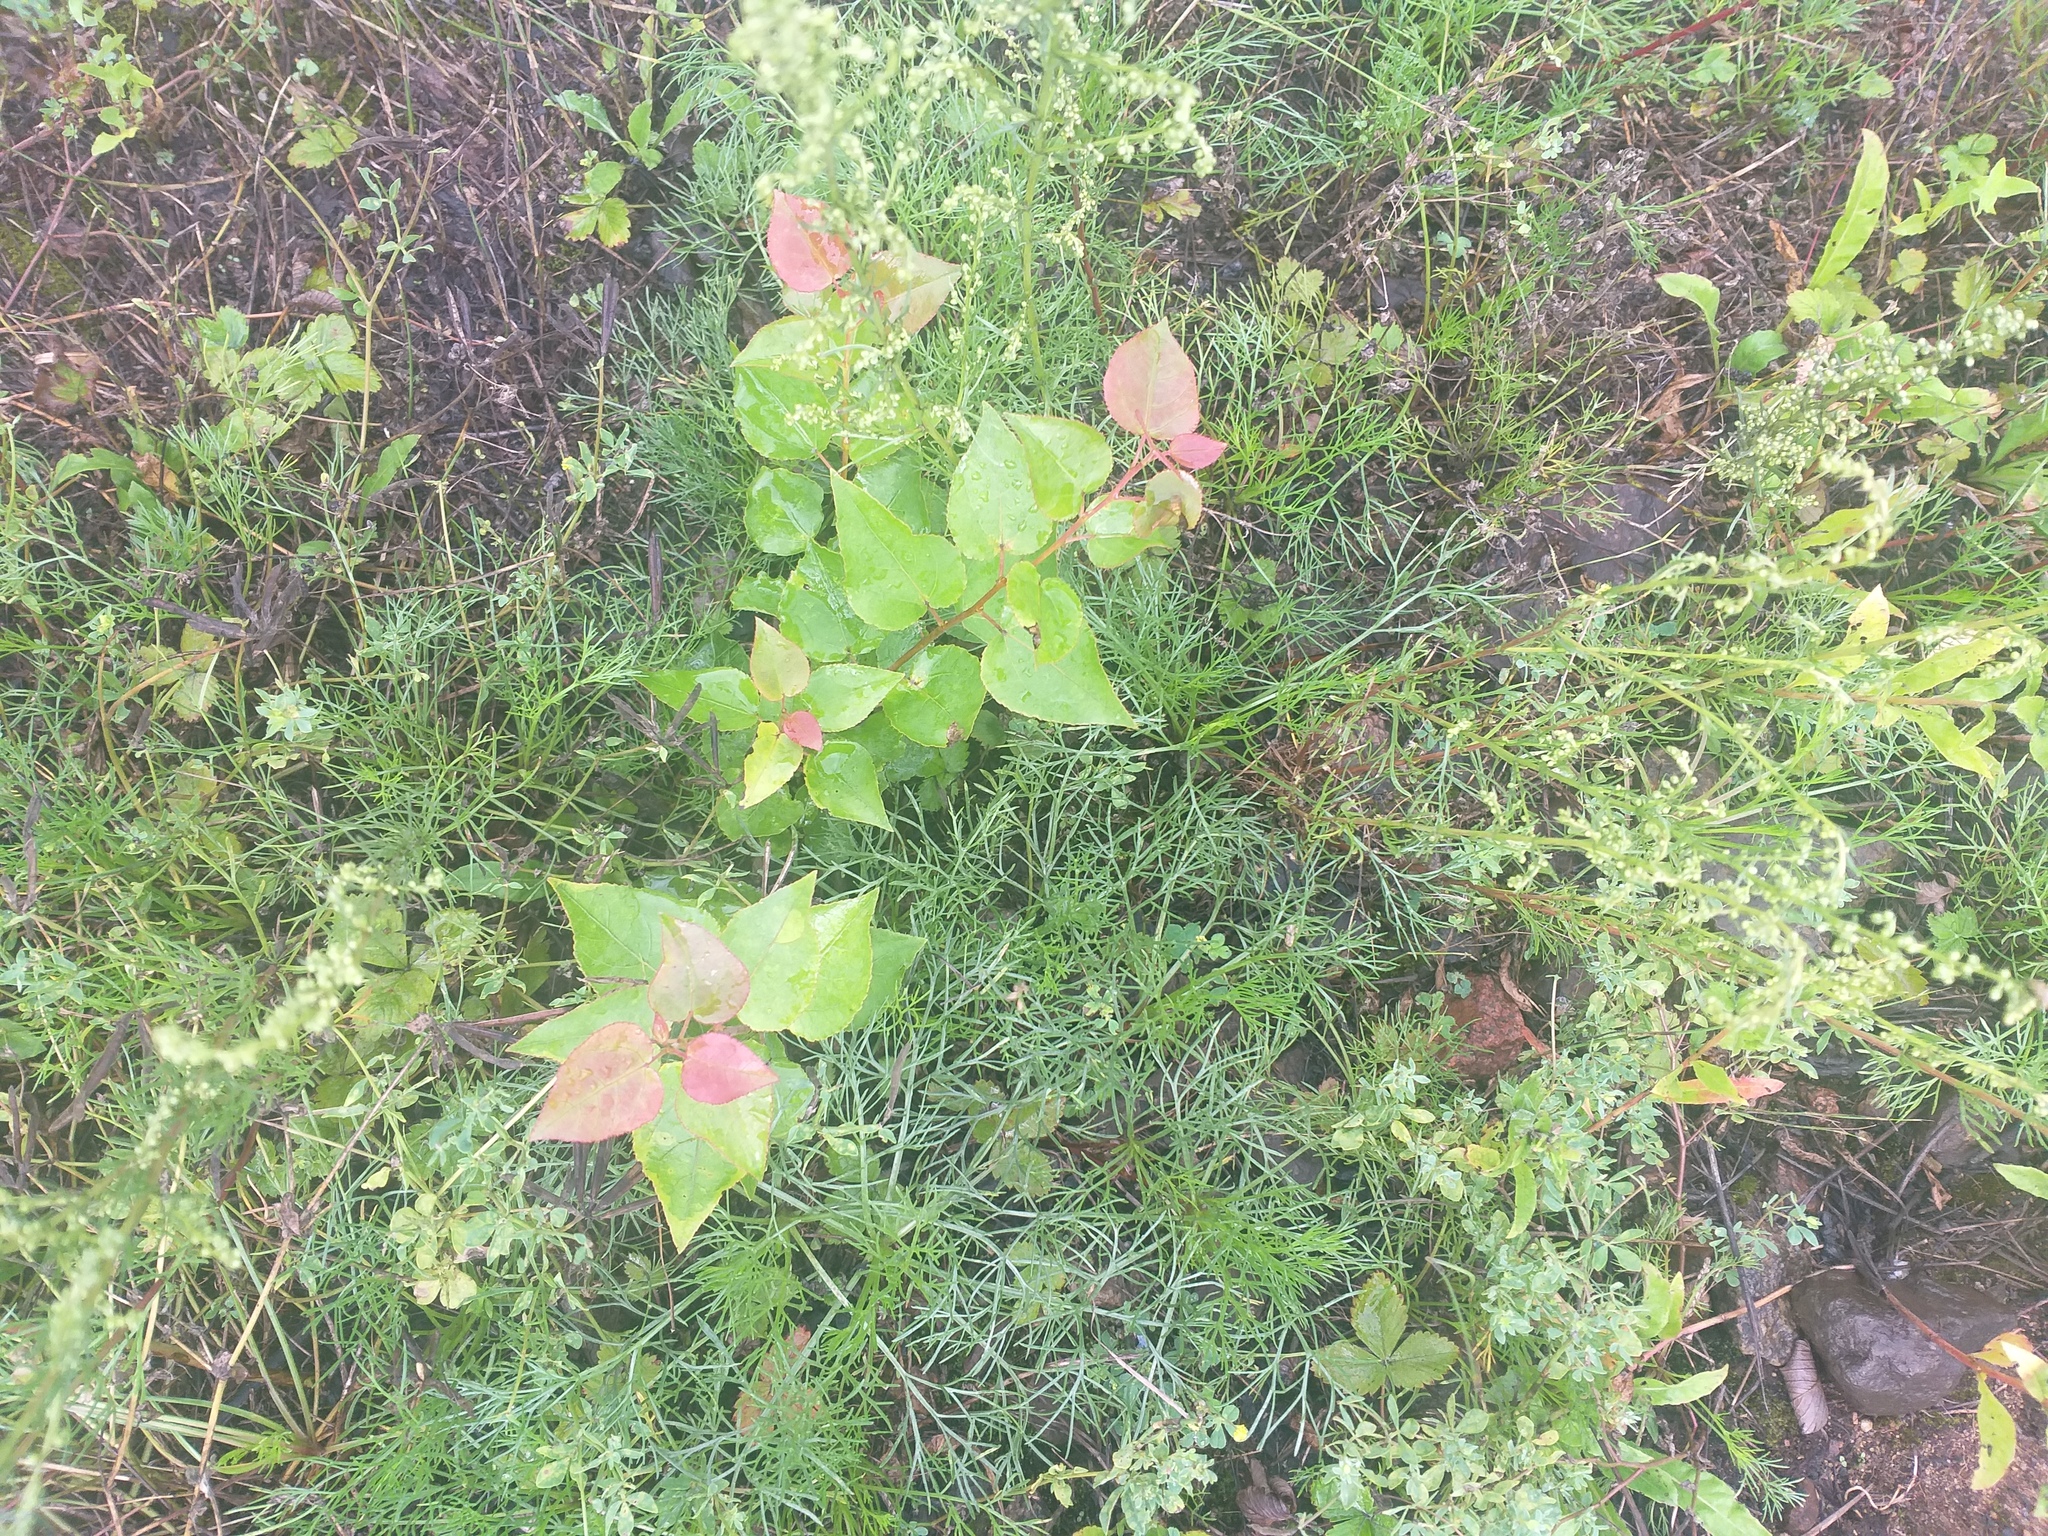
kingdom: Plantae
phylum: Tracheophyta
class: Magnoliopsida
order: Malpighiales
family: Salicaceae
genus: Populus
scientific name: Populus tremula
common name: European aspen
